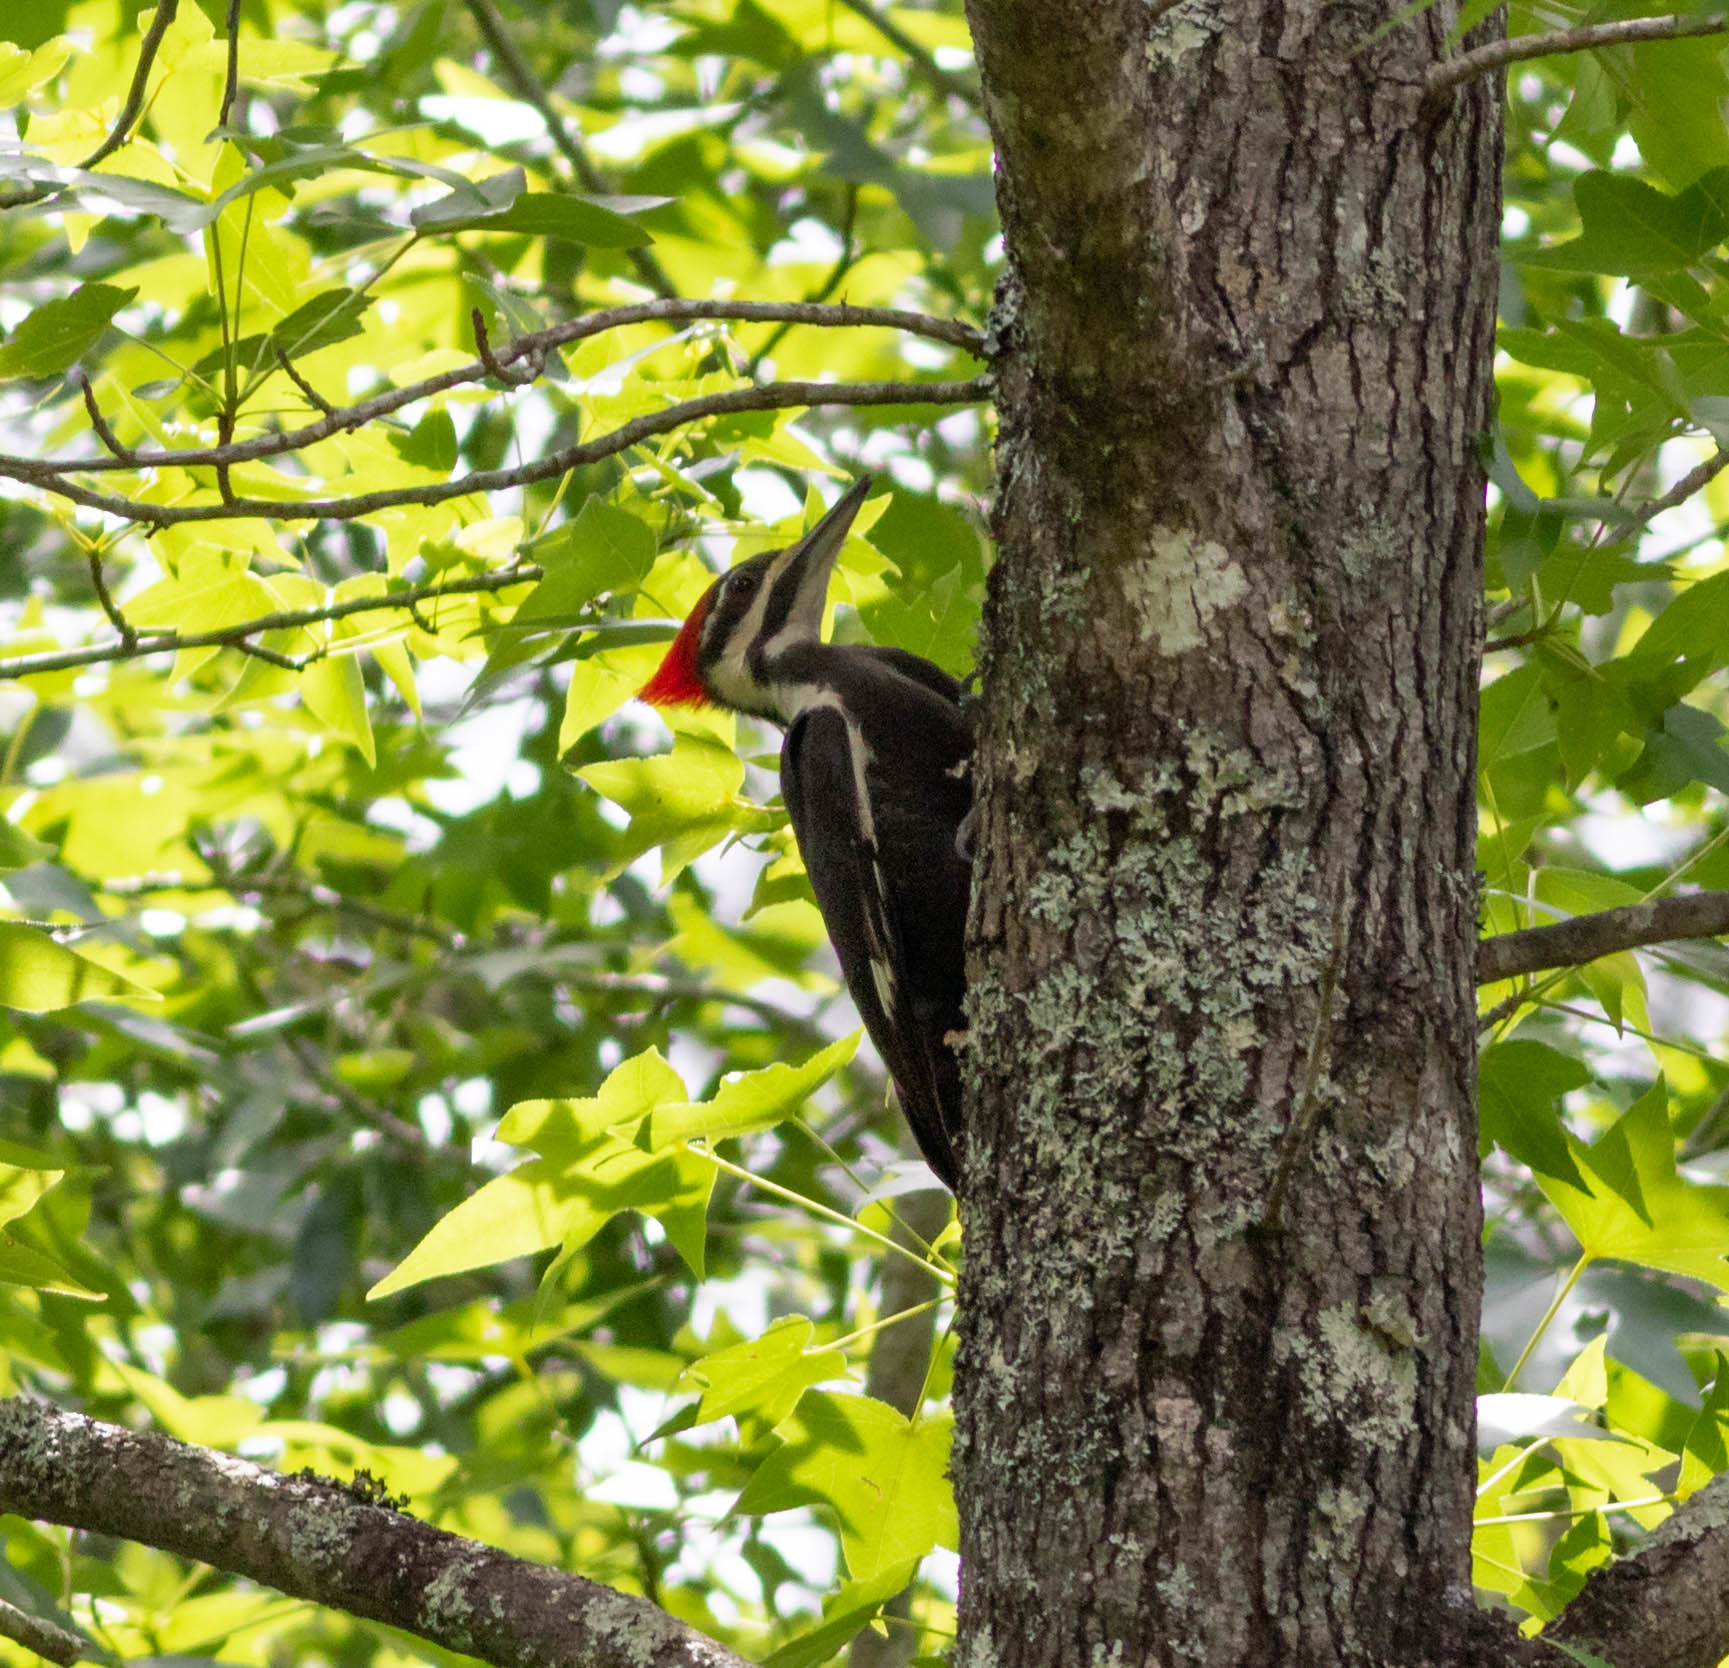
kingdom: Animalia
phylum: Chordata
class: Aves
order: Piciformes
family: Picidae
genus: Dryocopus
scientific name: Dryocopus pileatus
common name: Pileated woodpecker
